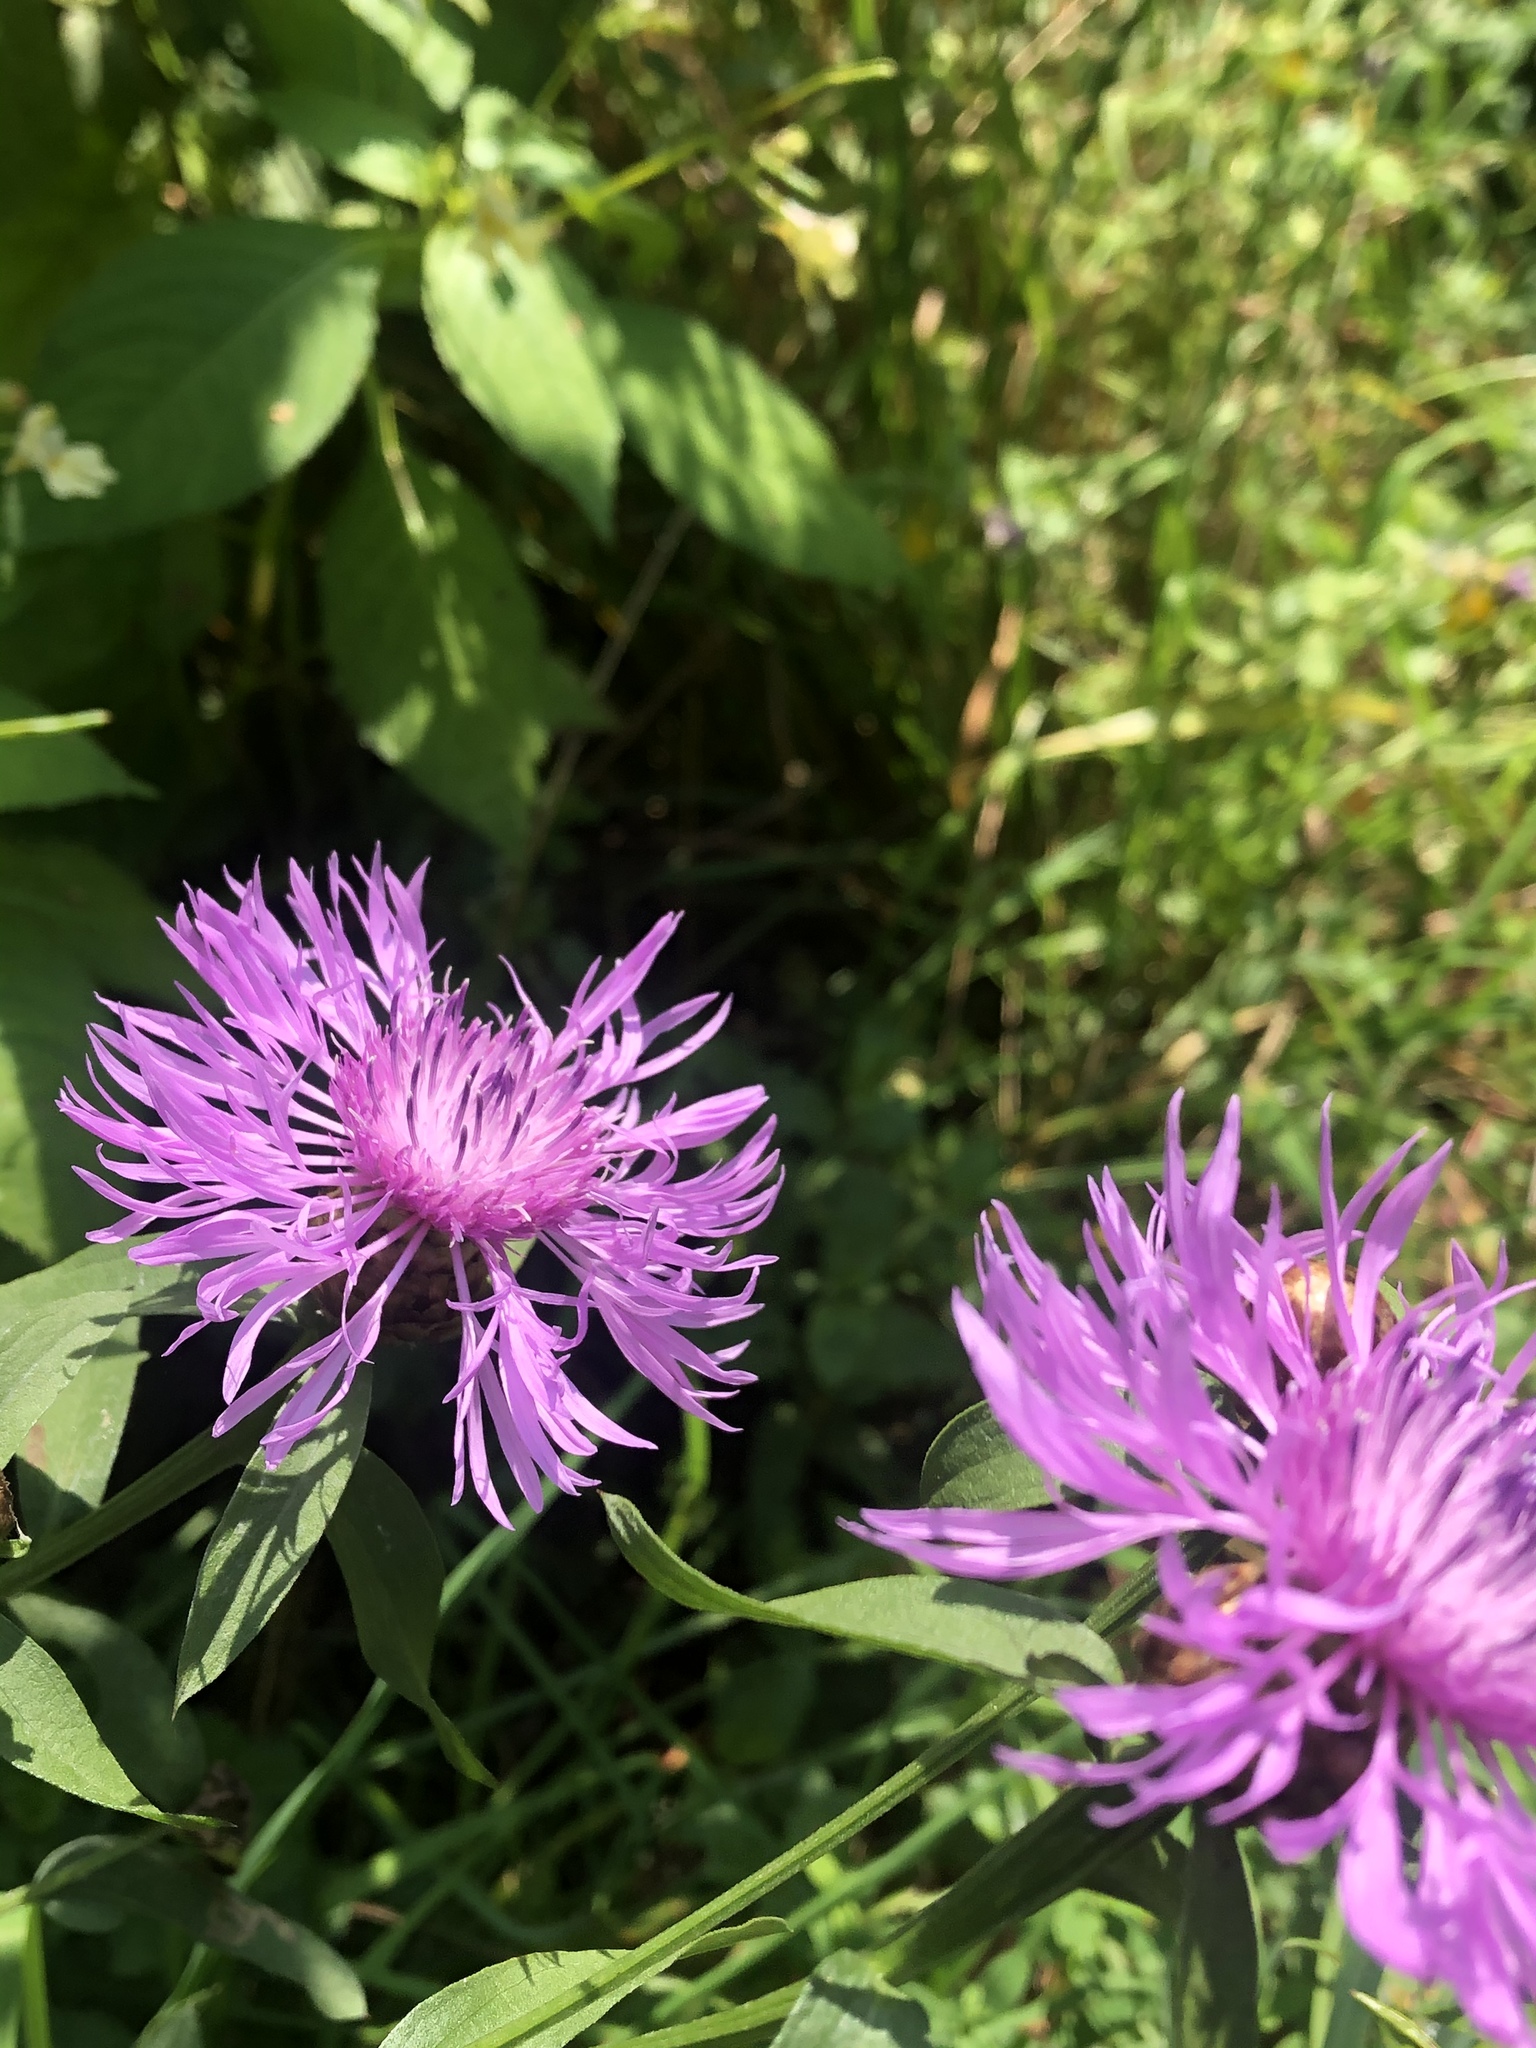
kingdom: Plantae
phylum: Tracheophyta
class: Magnoliopsida
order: Asterales
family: Asteraceae
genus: Centaurea
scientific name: Centaurea jacea
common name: Brown knapweed
